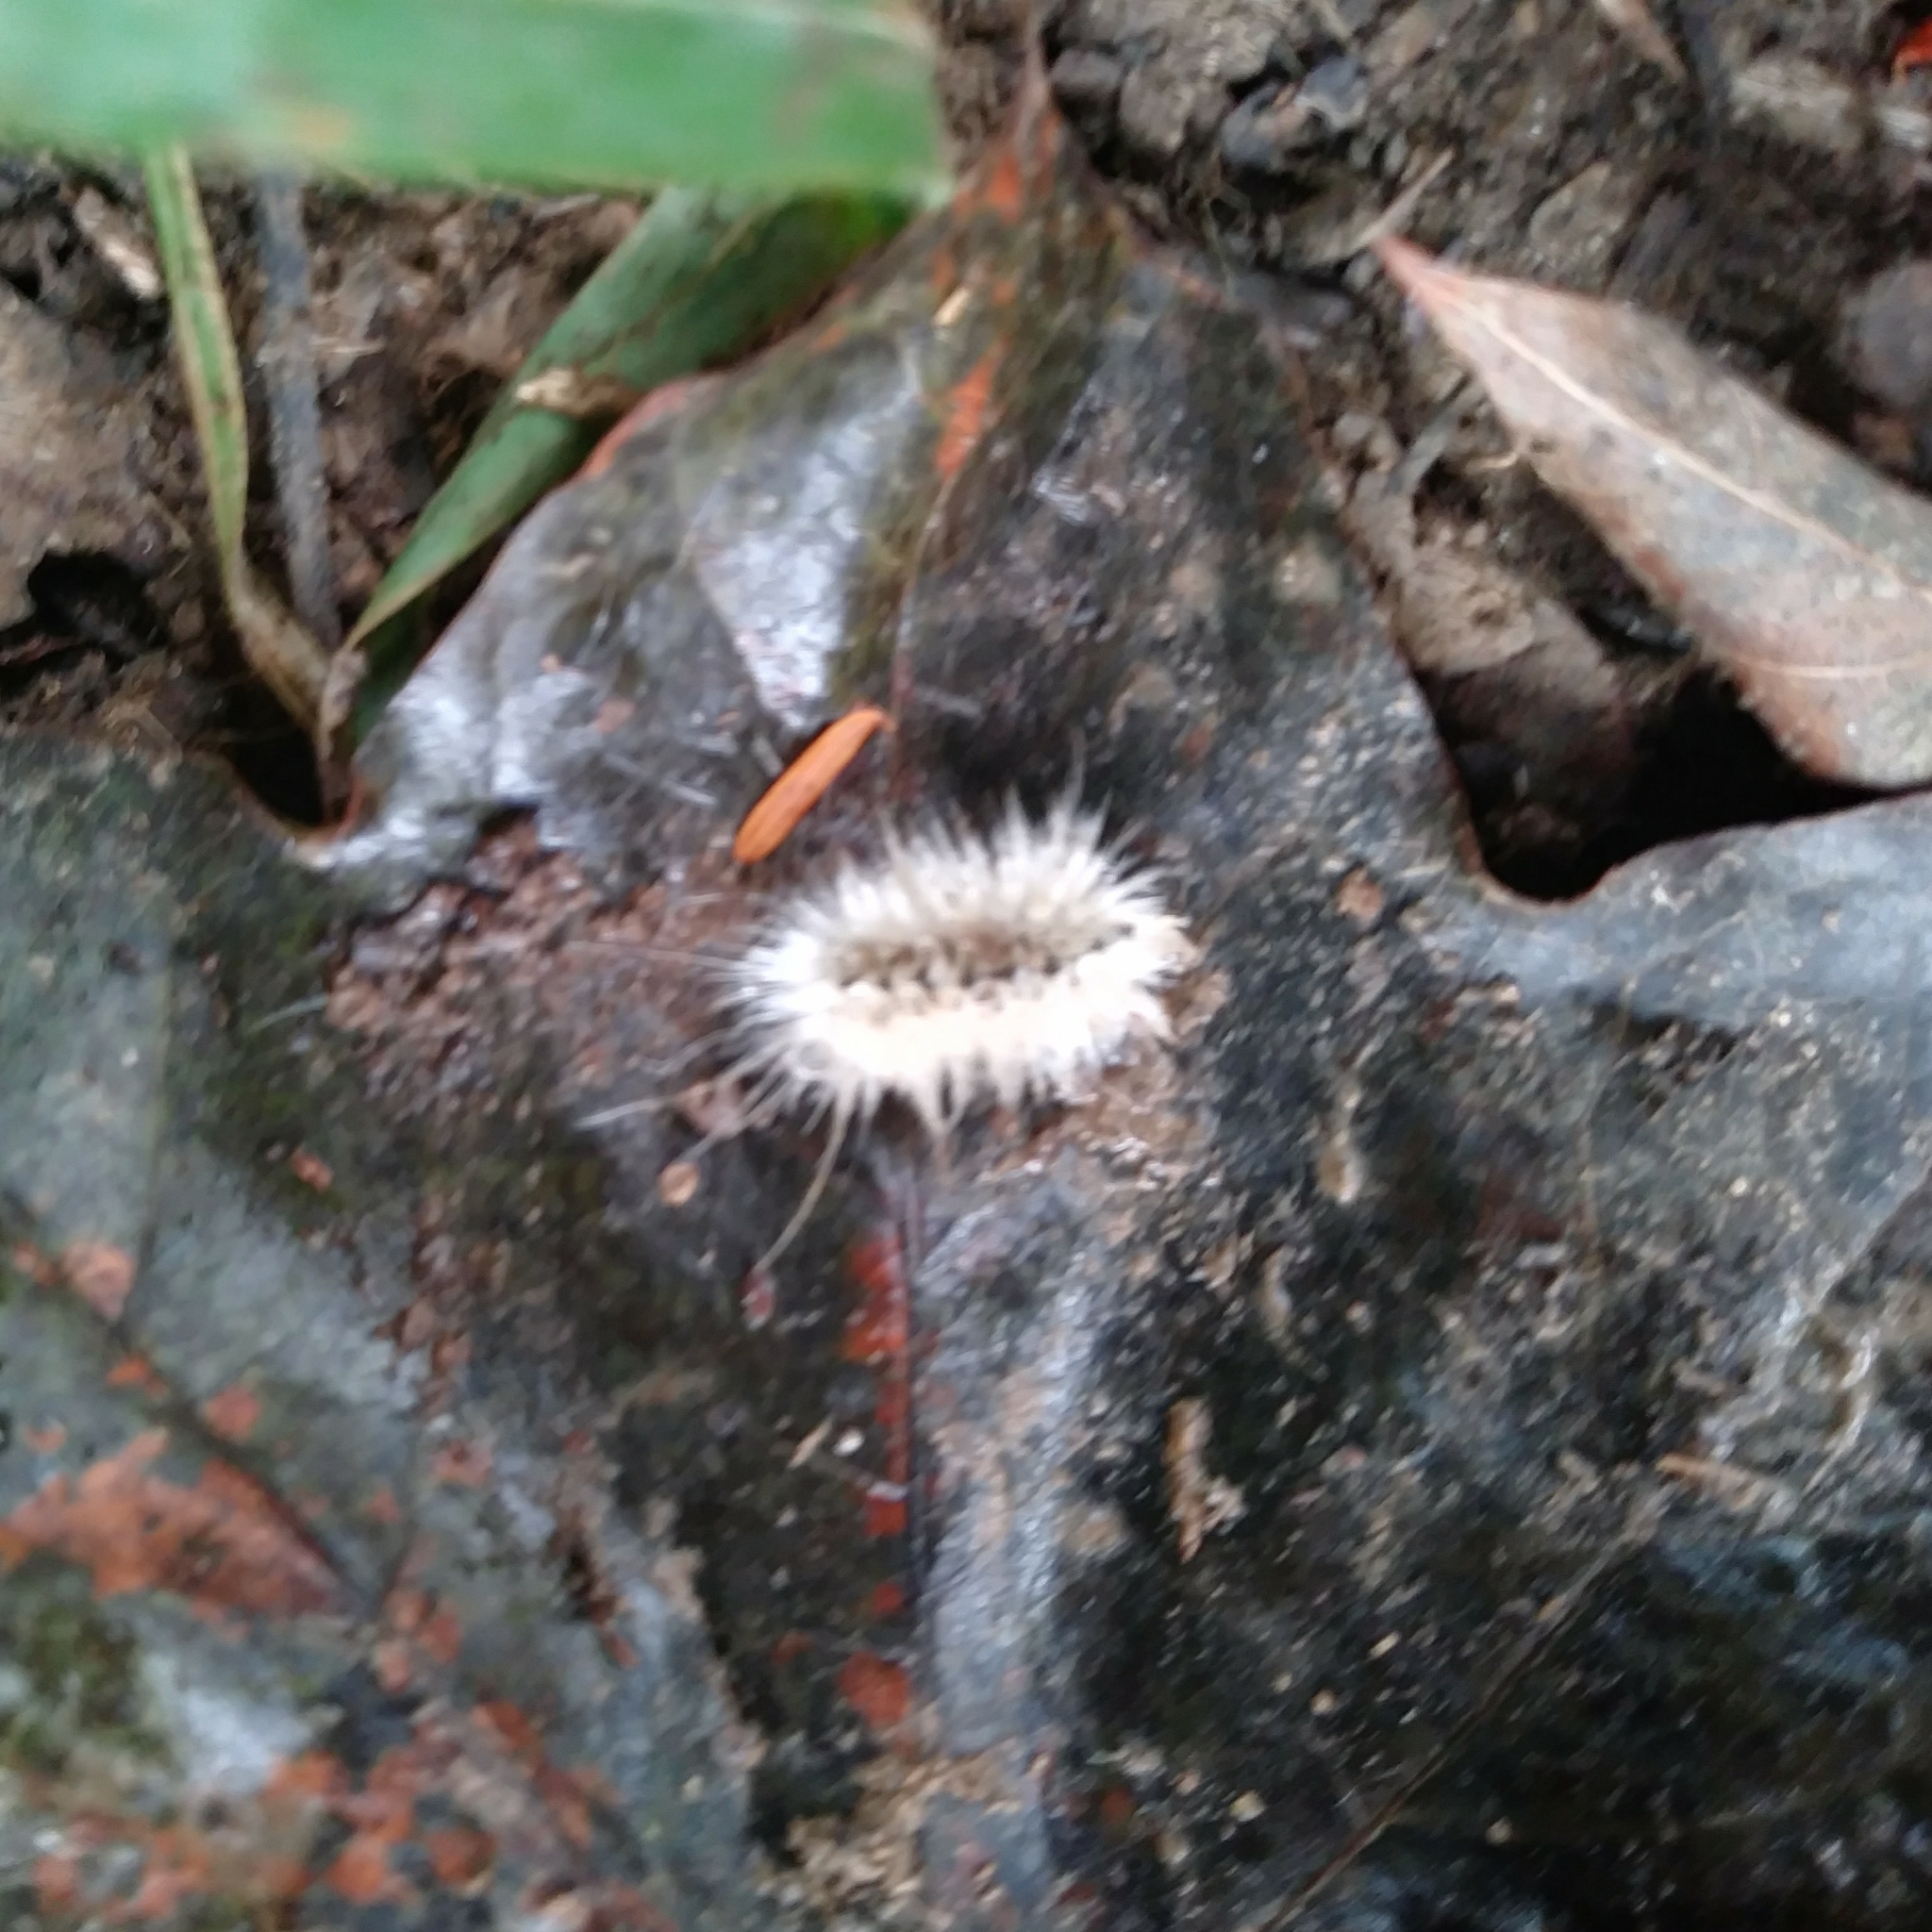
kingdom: Animalia
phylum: Arthropoda
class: Insecta
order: Lepidoptera
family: Erebidae
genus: Lophocampa
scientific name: Lophocampa caryae
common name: Hickory tussock moth
